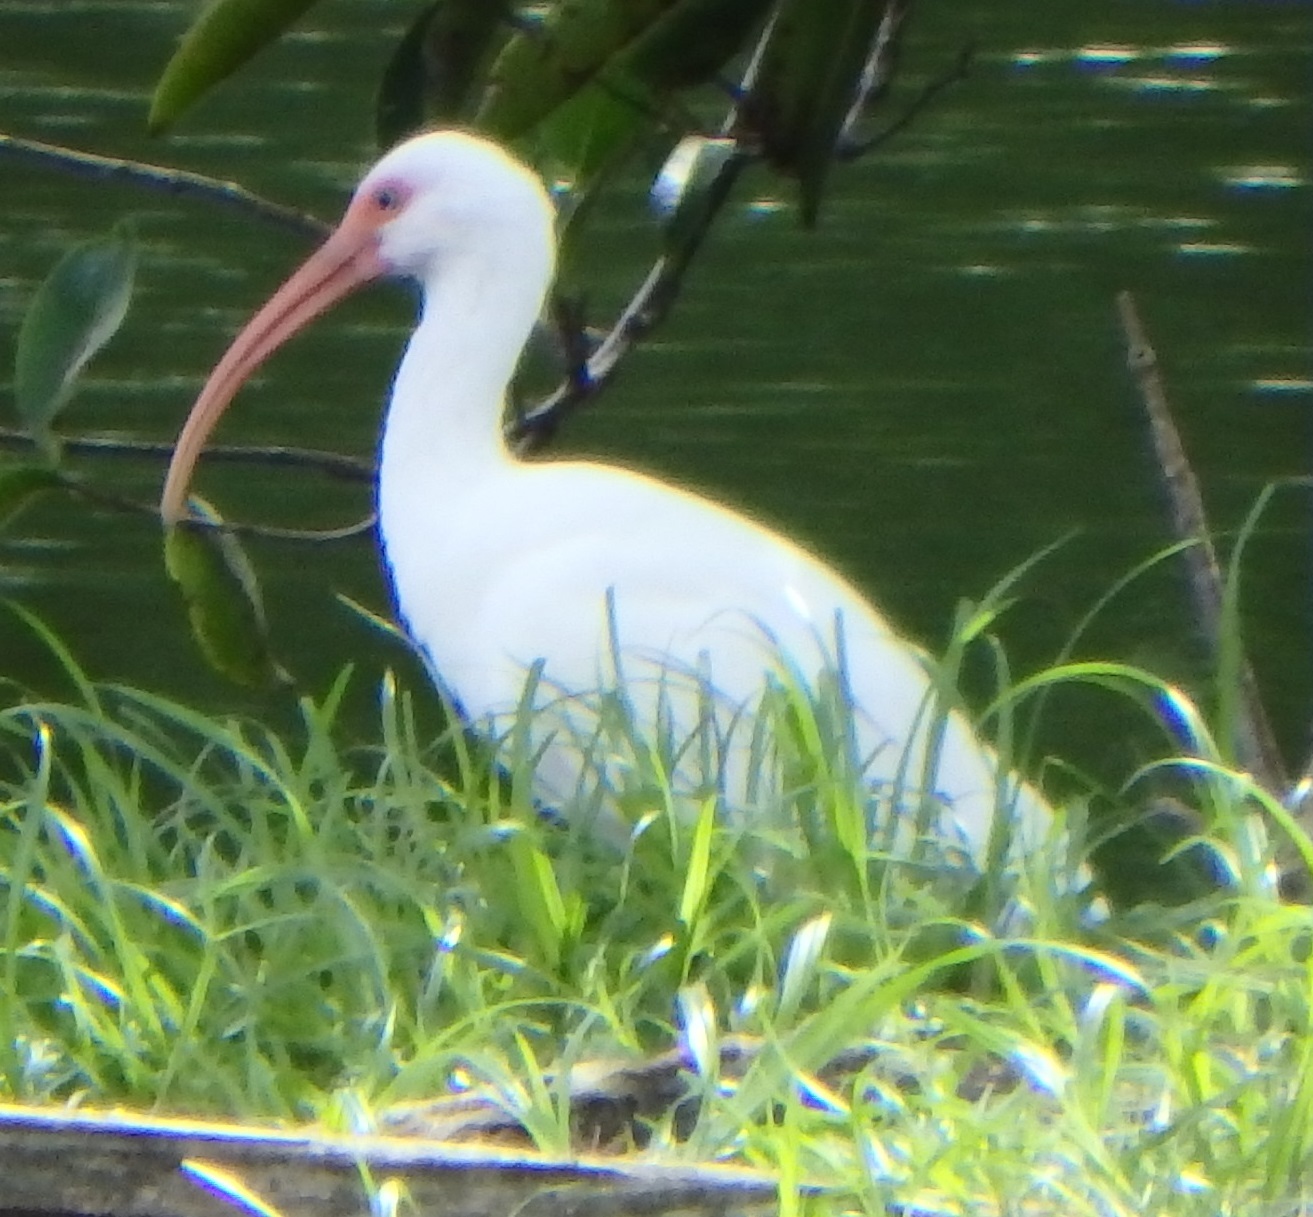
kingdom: Animalia
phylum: Chordata
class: Aves
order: Pelecaniformes
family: Threskiornithidae
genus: Eudocimus
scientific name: Eudocimus albus
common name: White ibis
